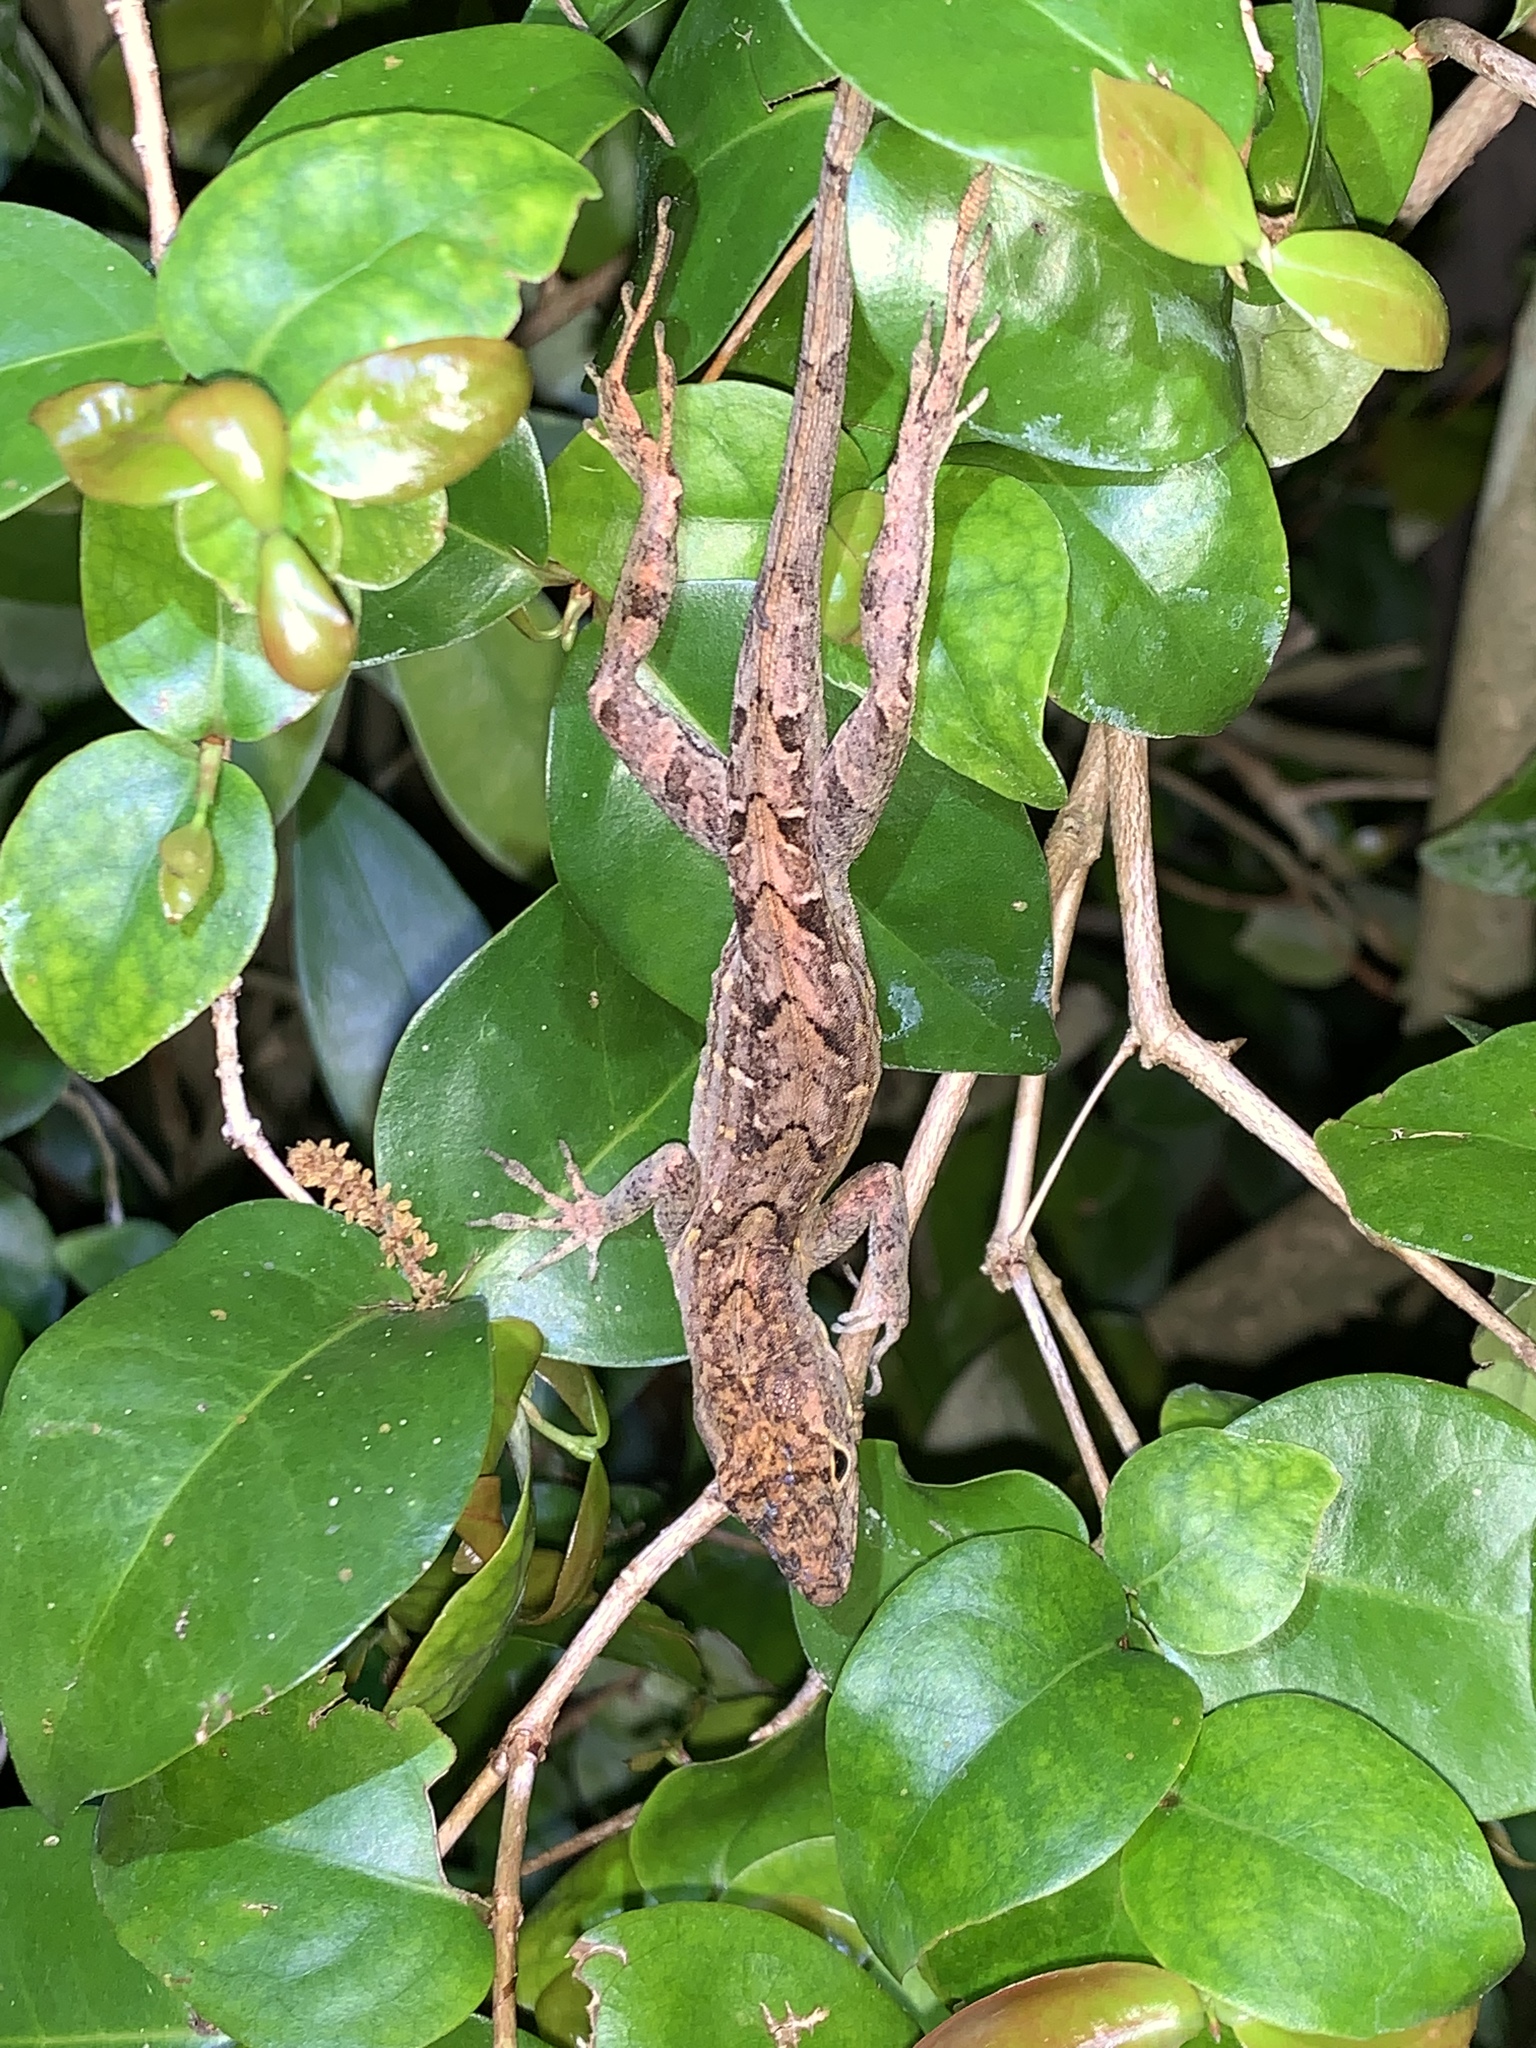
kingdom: Animalia
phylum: Chordata
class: Squamata
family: Dactyloidae
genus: Anolis
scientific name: Anolis sagrei
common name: Brown anole
